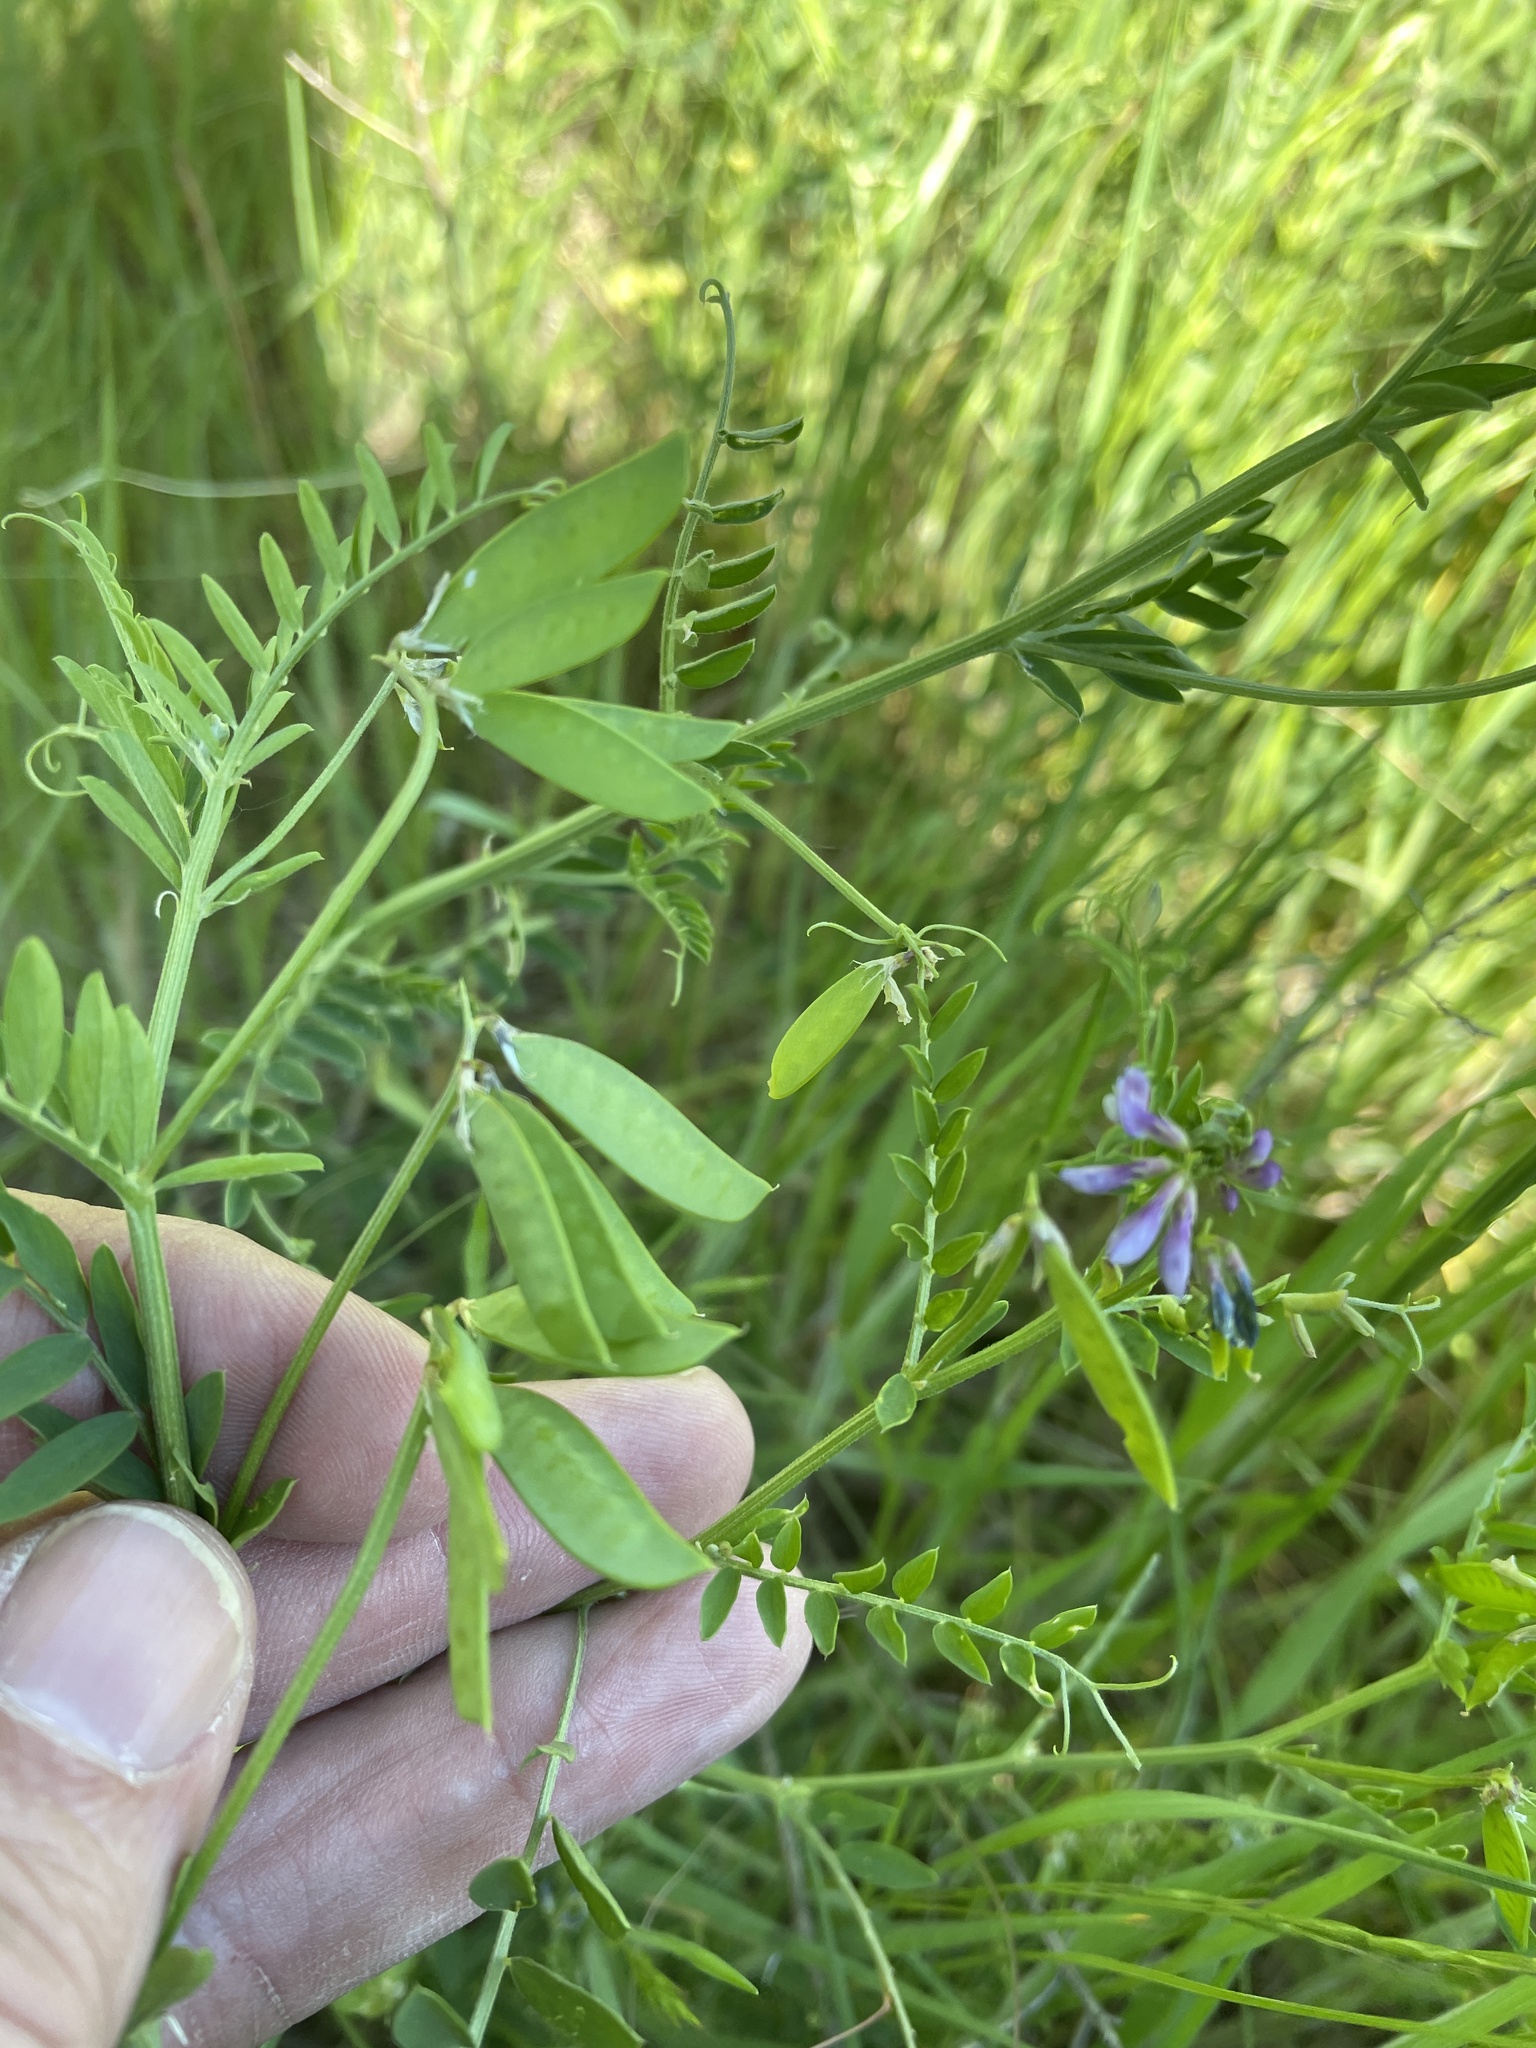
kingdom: Plantae
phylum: Tracheophyta
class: Magnoliopsida
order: Fabales
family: Fabaceae
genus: Vicia
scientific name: Vicia ludoviciana
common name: Louisiana vetch
